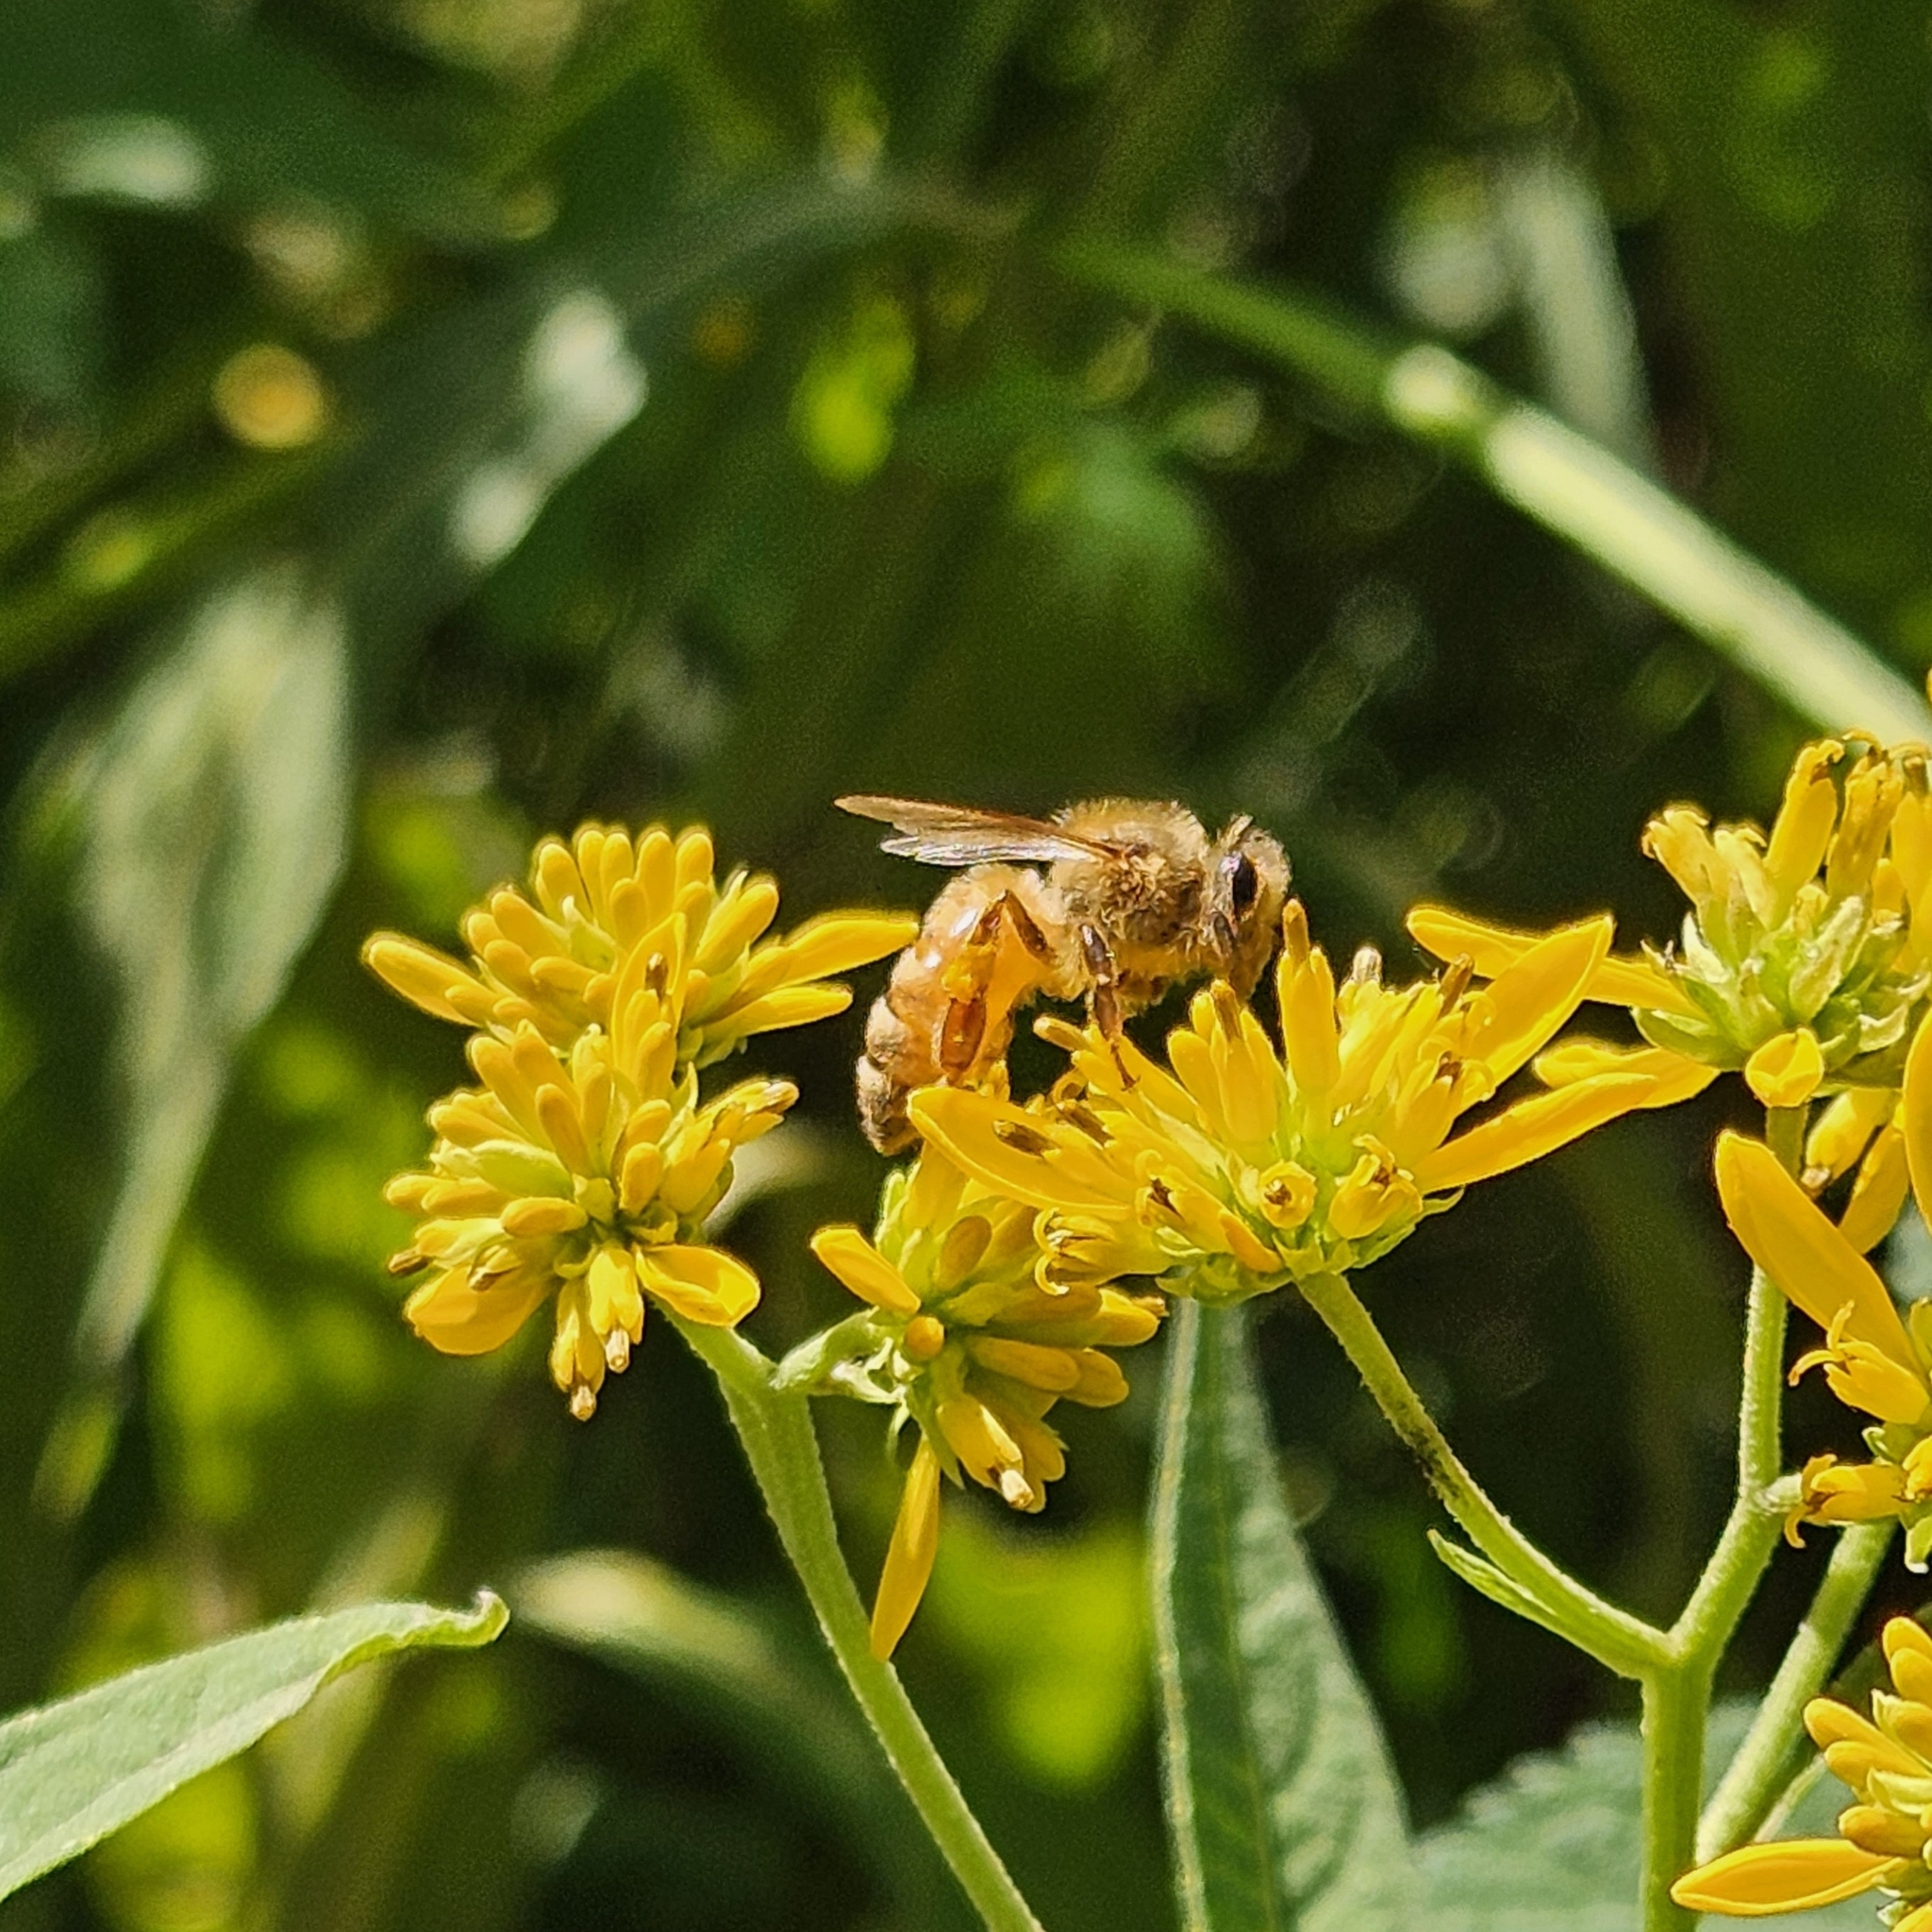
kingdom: Animalia
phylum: Arthropoda
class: Insecta
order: Hymenoptera
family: Apidae
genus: Apis
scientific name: Apis mellifera
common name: Honey bee
